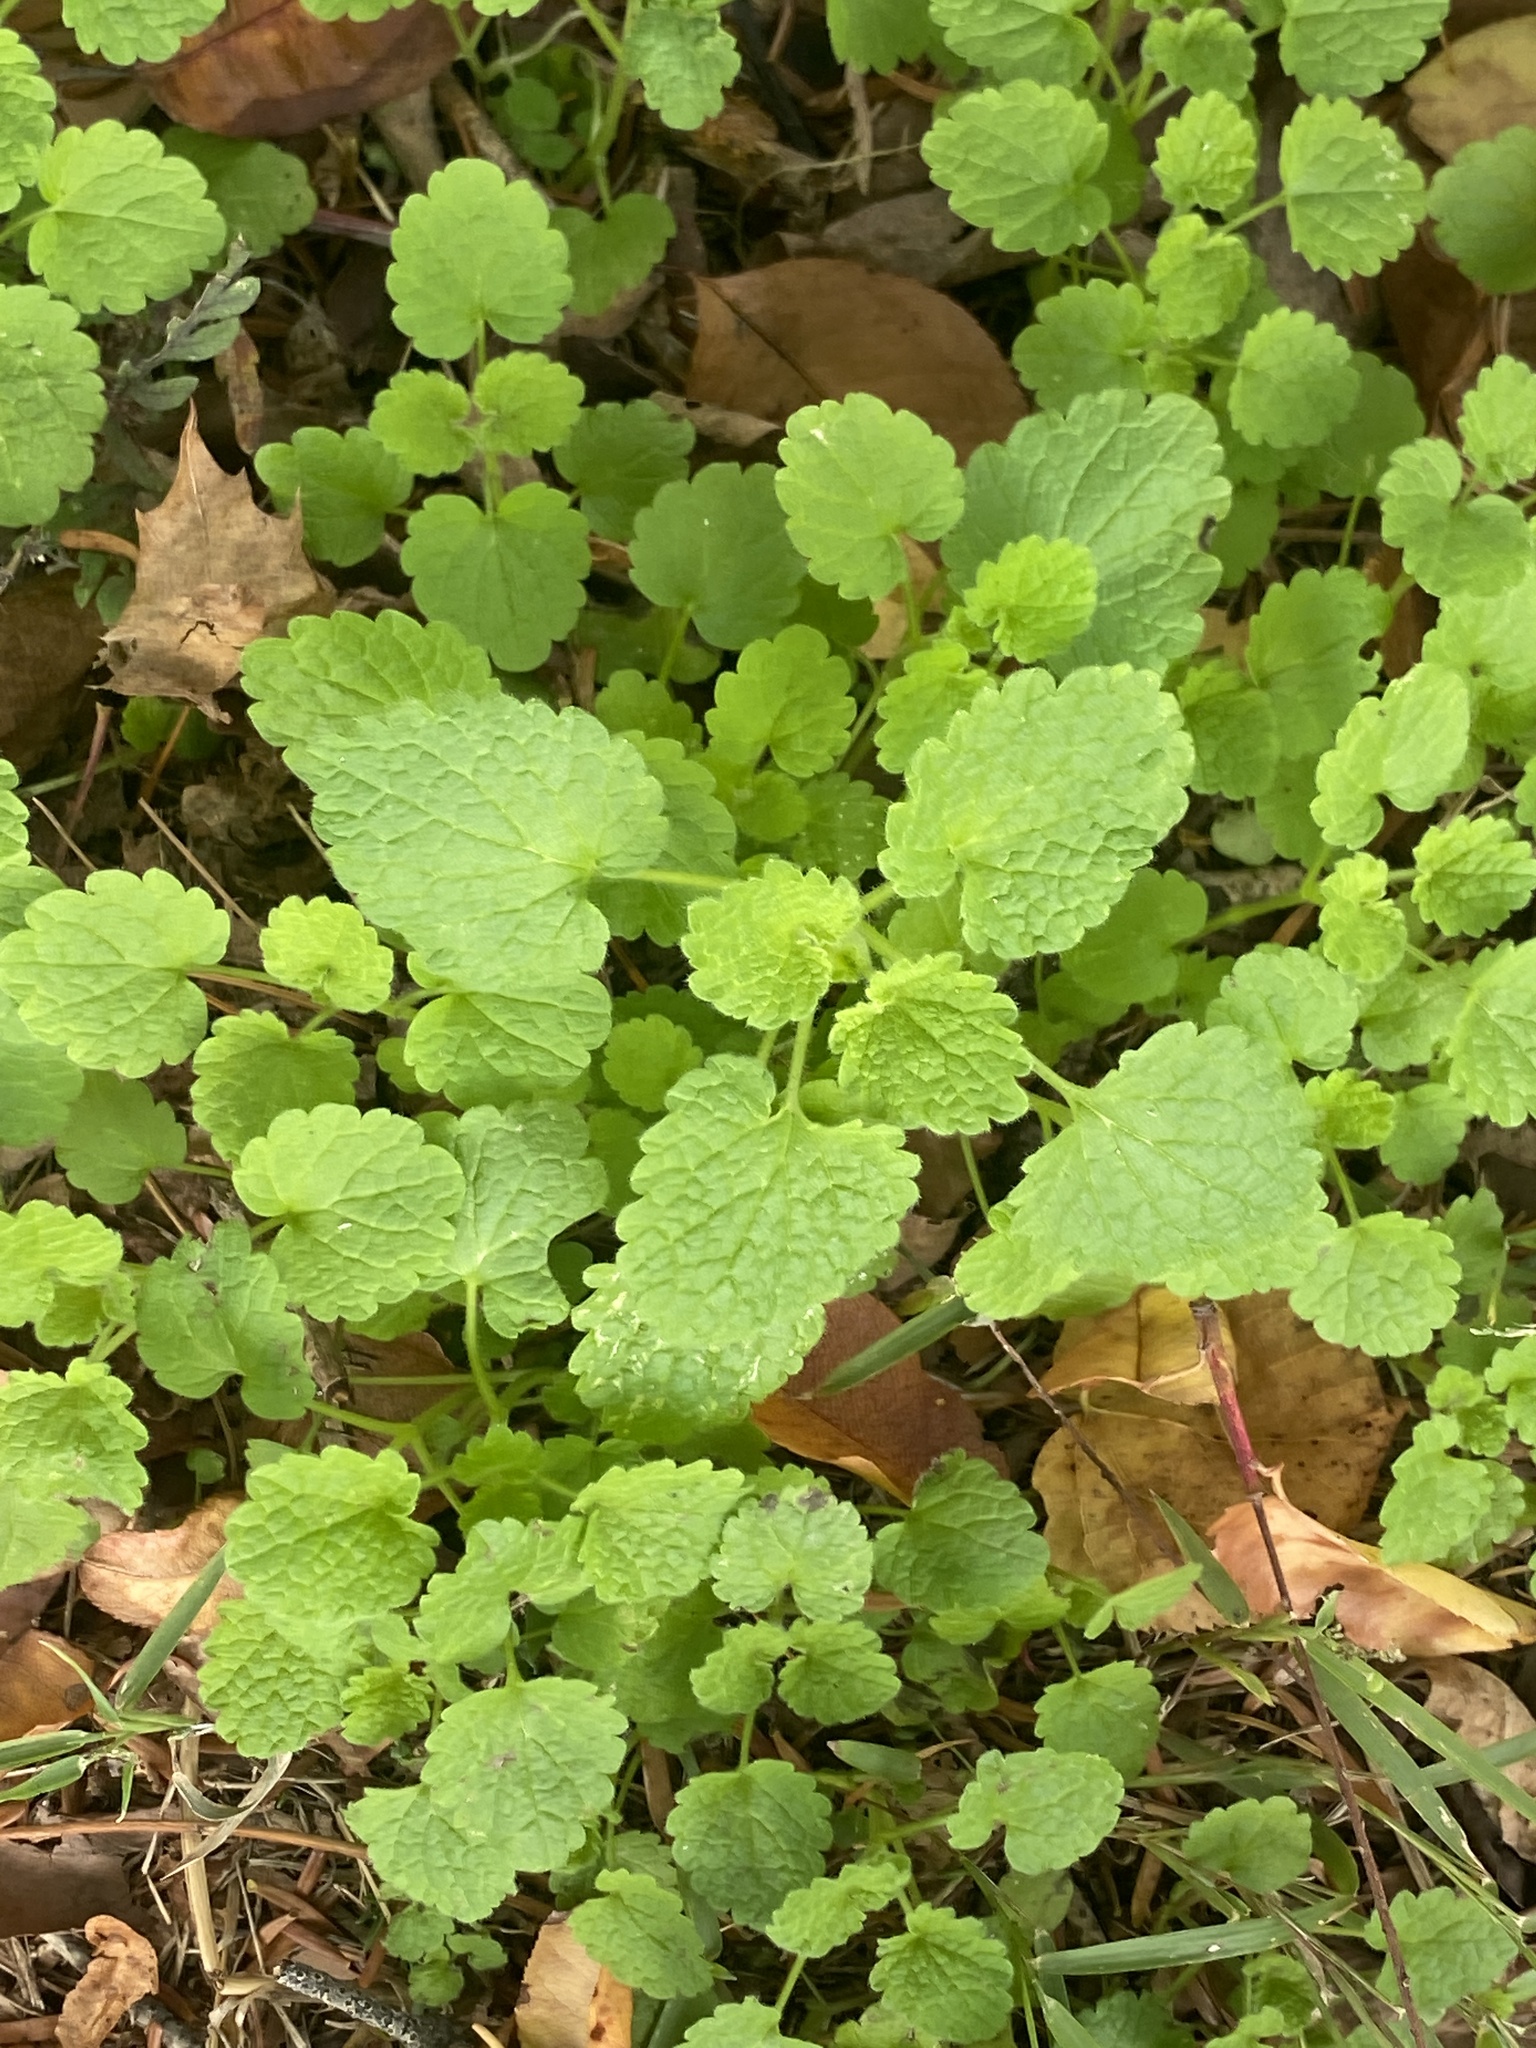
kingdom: Plantae
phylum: Tracheophyta
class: Magnoliopsida
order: Lamiales
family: Lamiaceae
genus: Lamium
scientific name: Lamium purpureum
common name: Red dead-nettle
